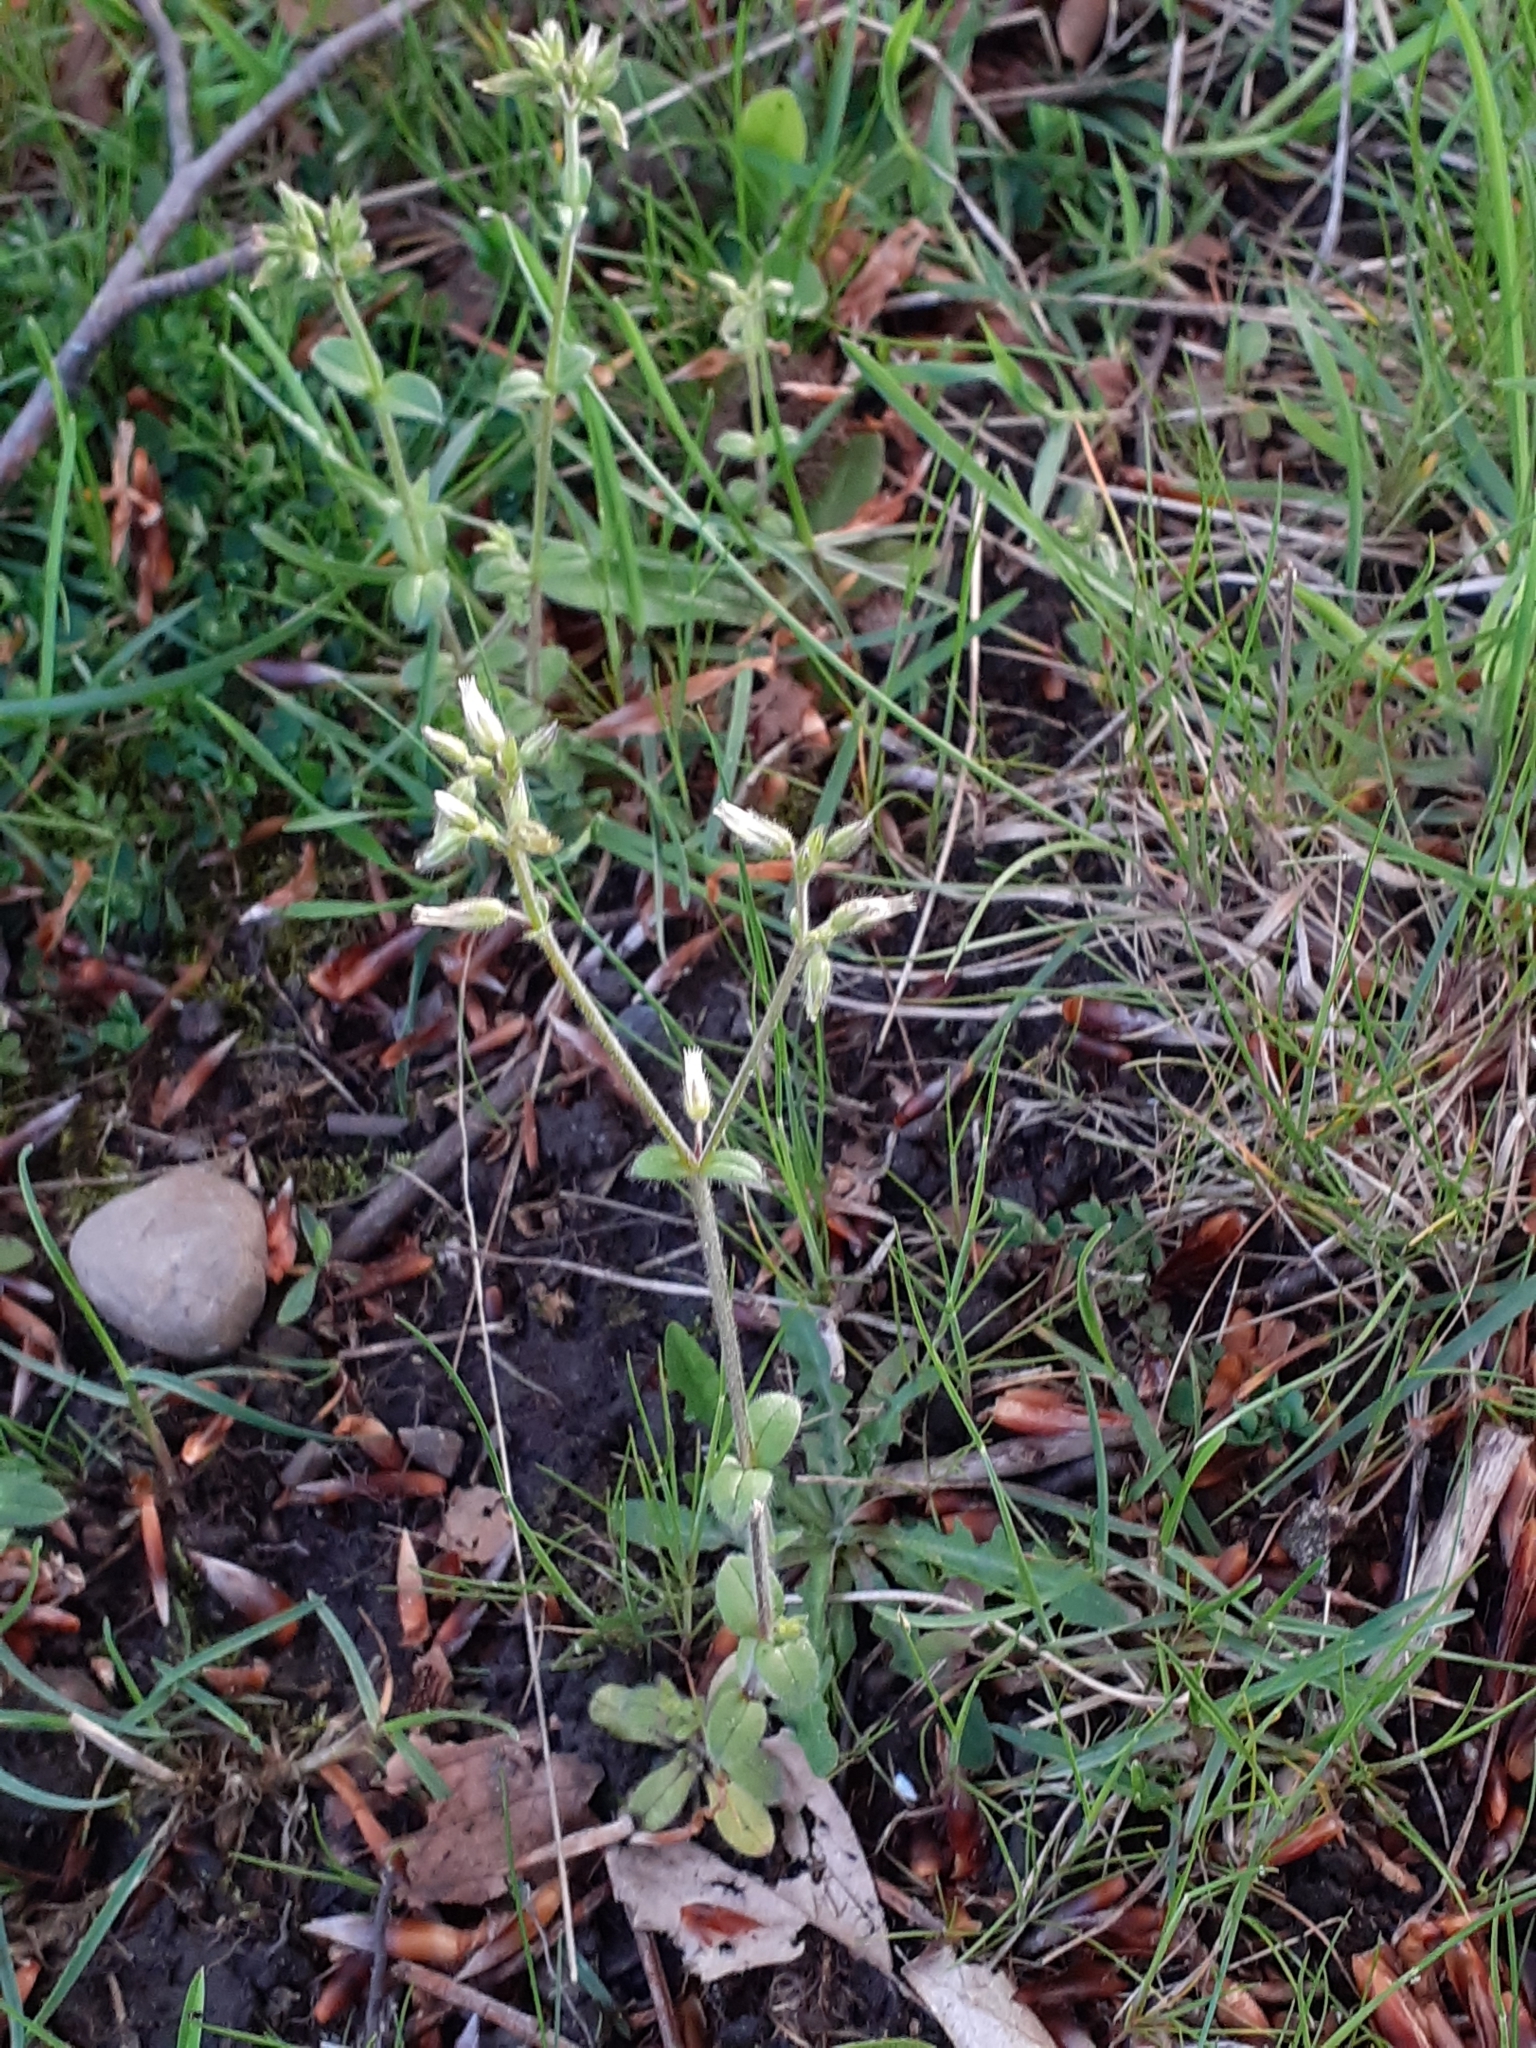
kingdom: Plantae
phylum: Tracheophyta
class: Magnoliopsida
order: Caryophyllales
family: Caryophyllaceae
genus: Cerastium
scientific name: Cerastium glomeratum
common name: Sticky chickweed
